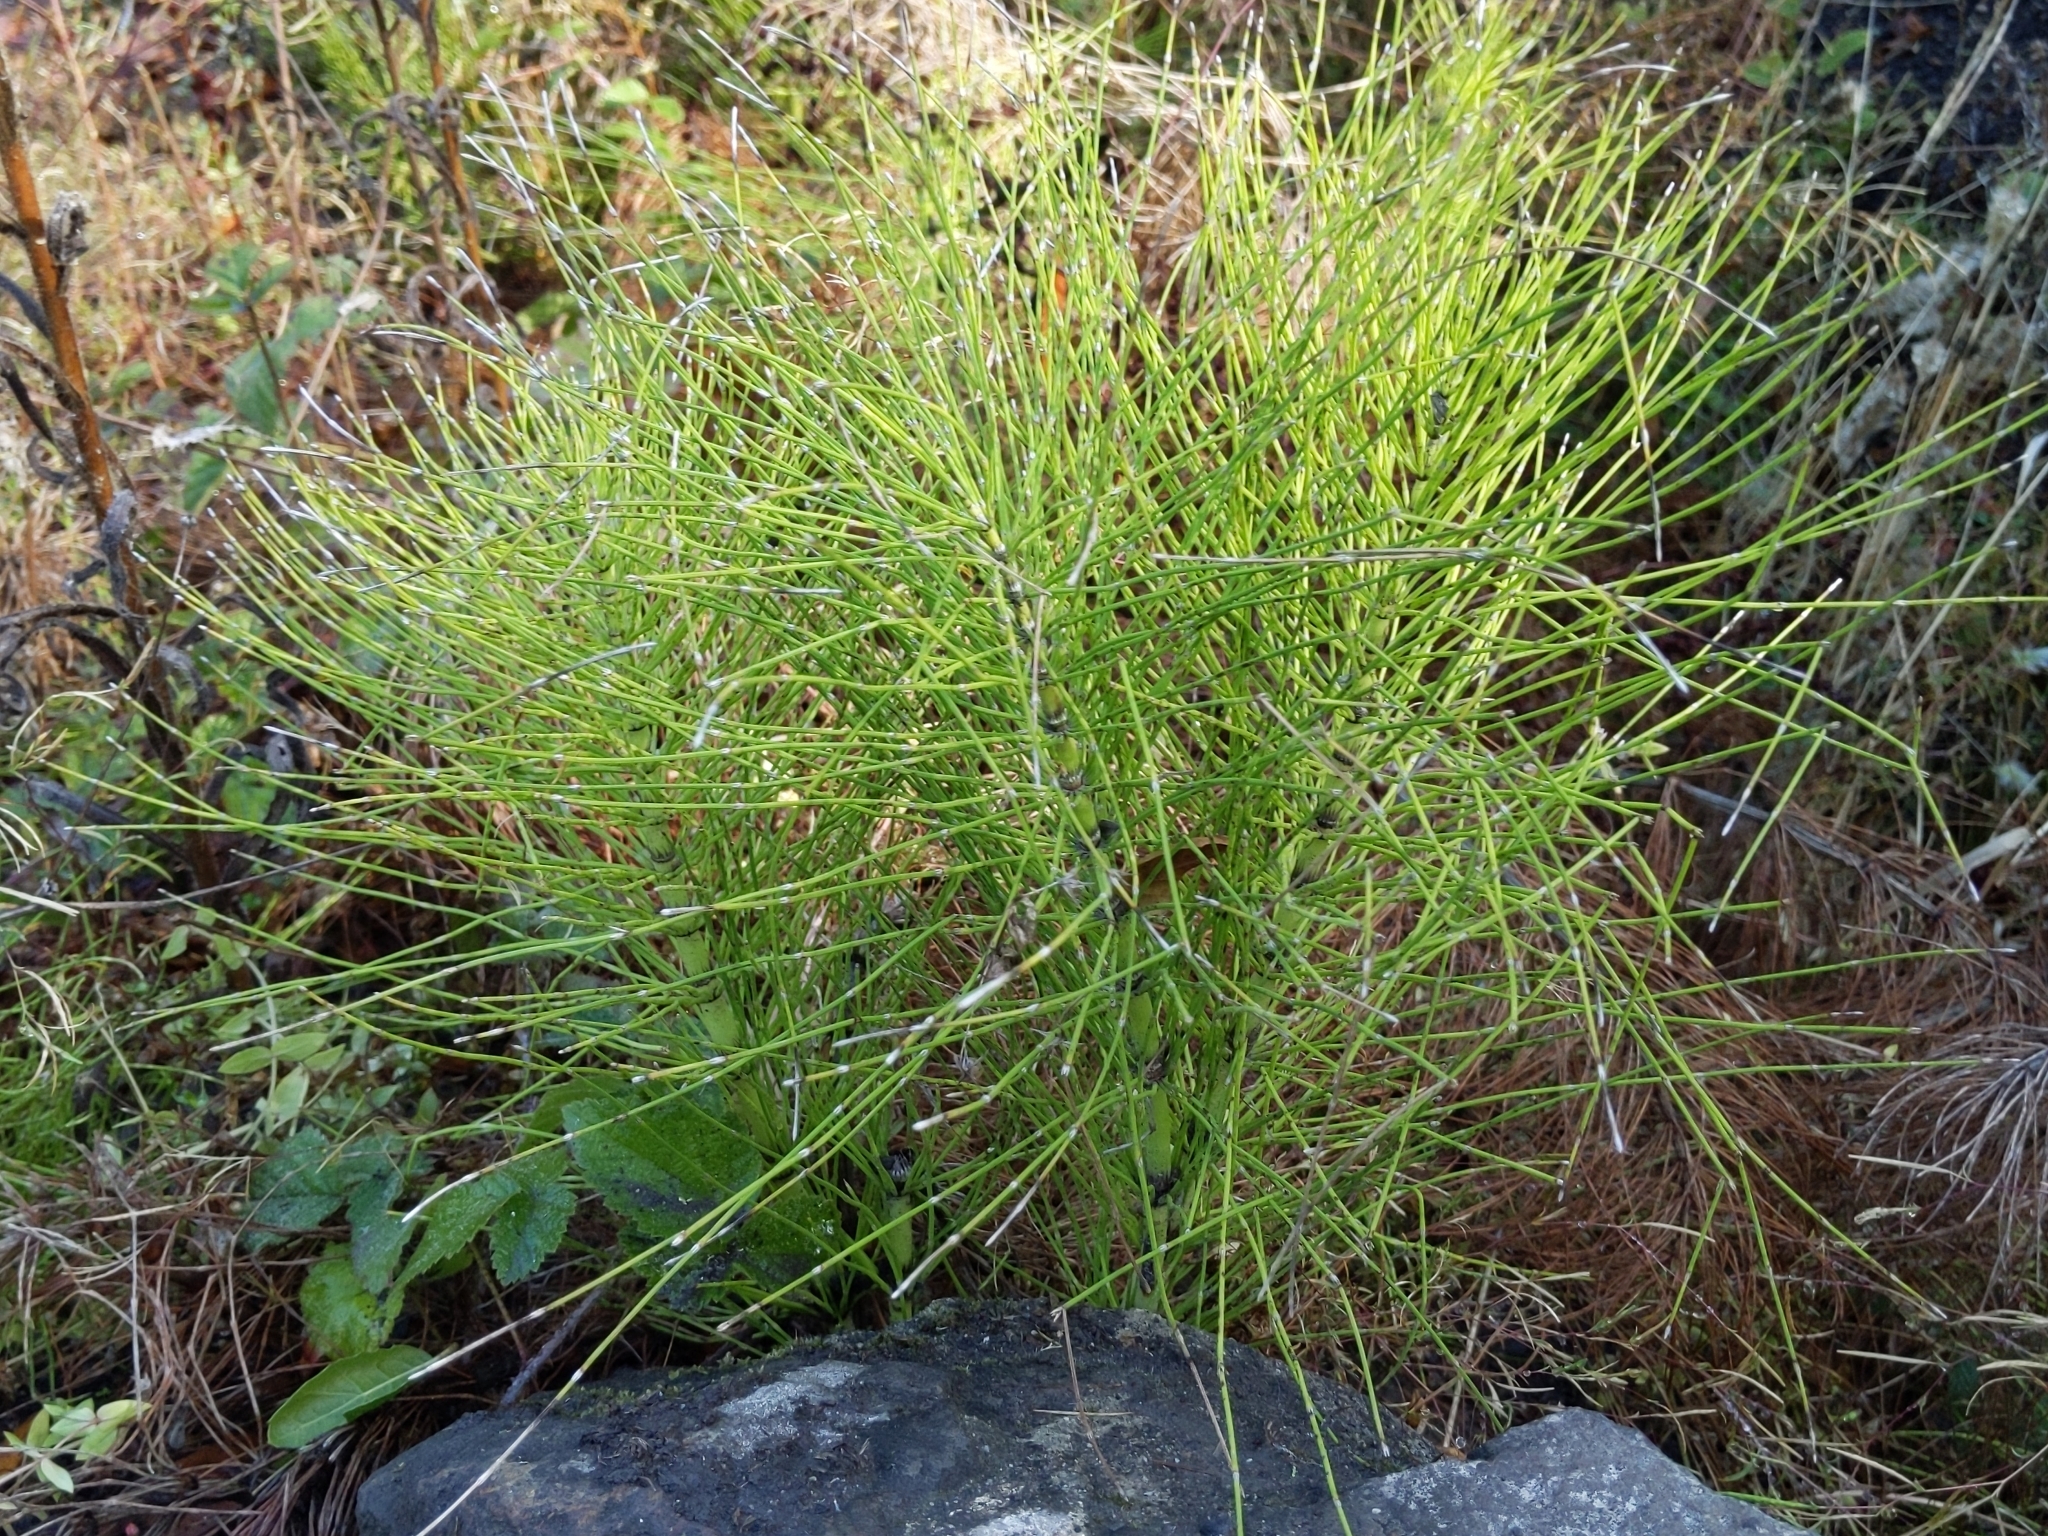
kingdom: Plantae
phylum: Tracheophyta
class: Polypodiopsida
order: Equisetales
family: Equisetaceae
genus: Equisetum
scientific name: Equisetum braunii
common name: Braun's horsetail
